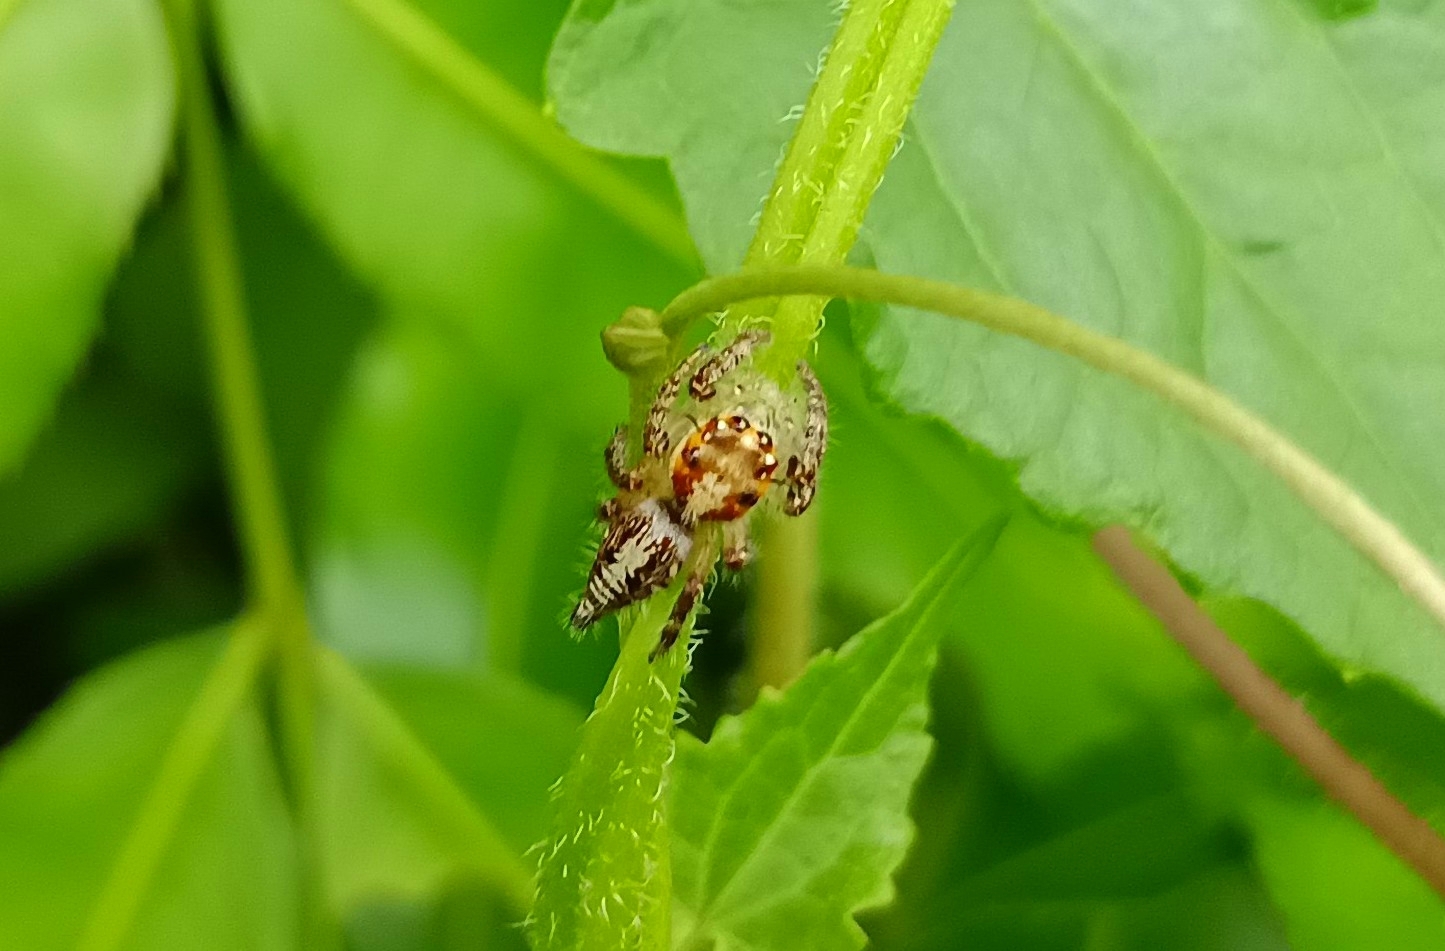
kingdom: Animalia
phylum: Arthropoda
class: Arachnida
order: Araneae
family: Salticidae
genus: Hyllus
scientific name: Hyllus semicupreus
